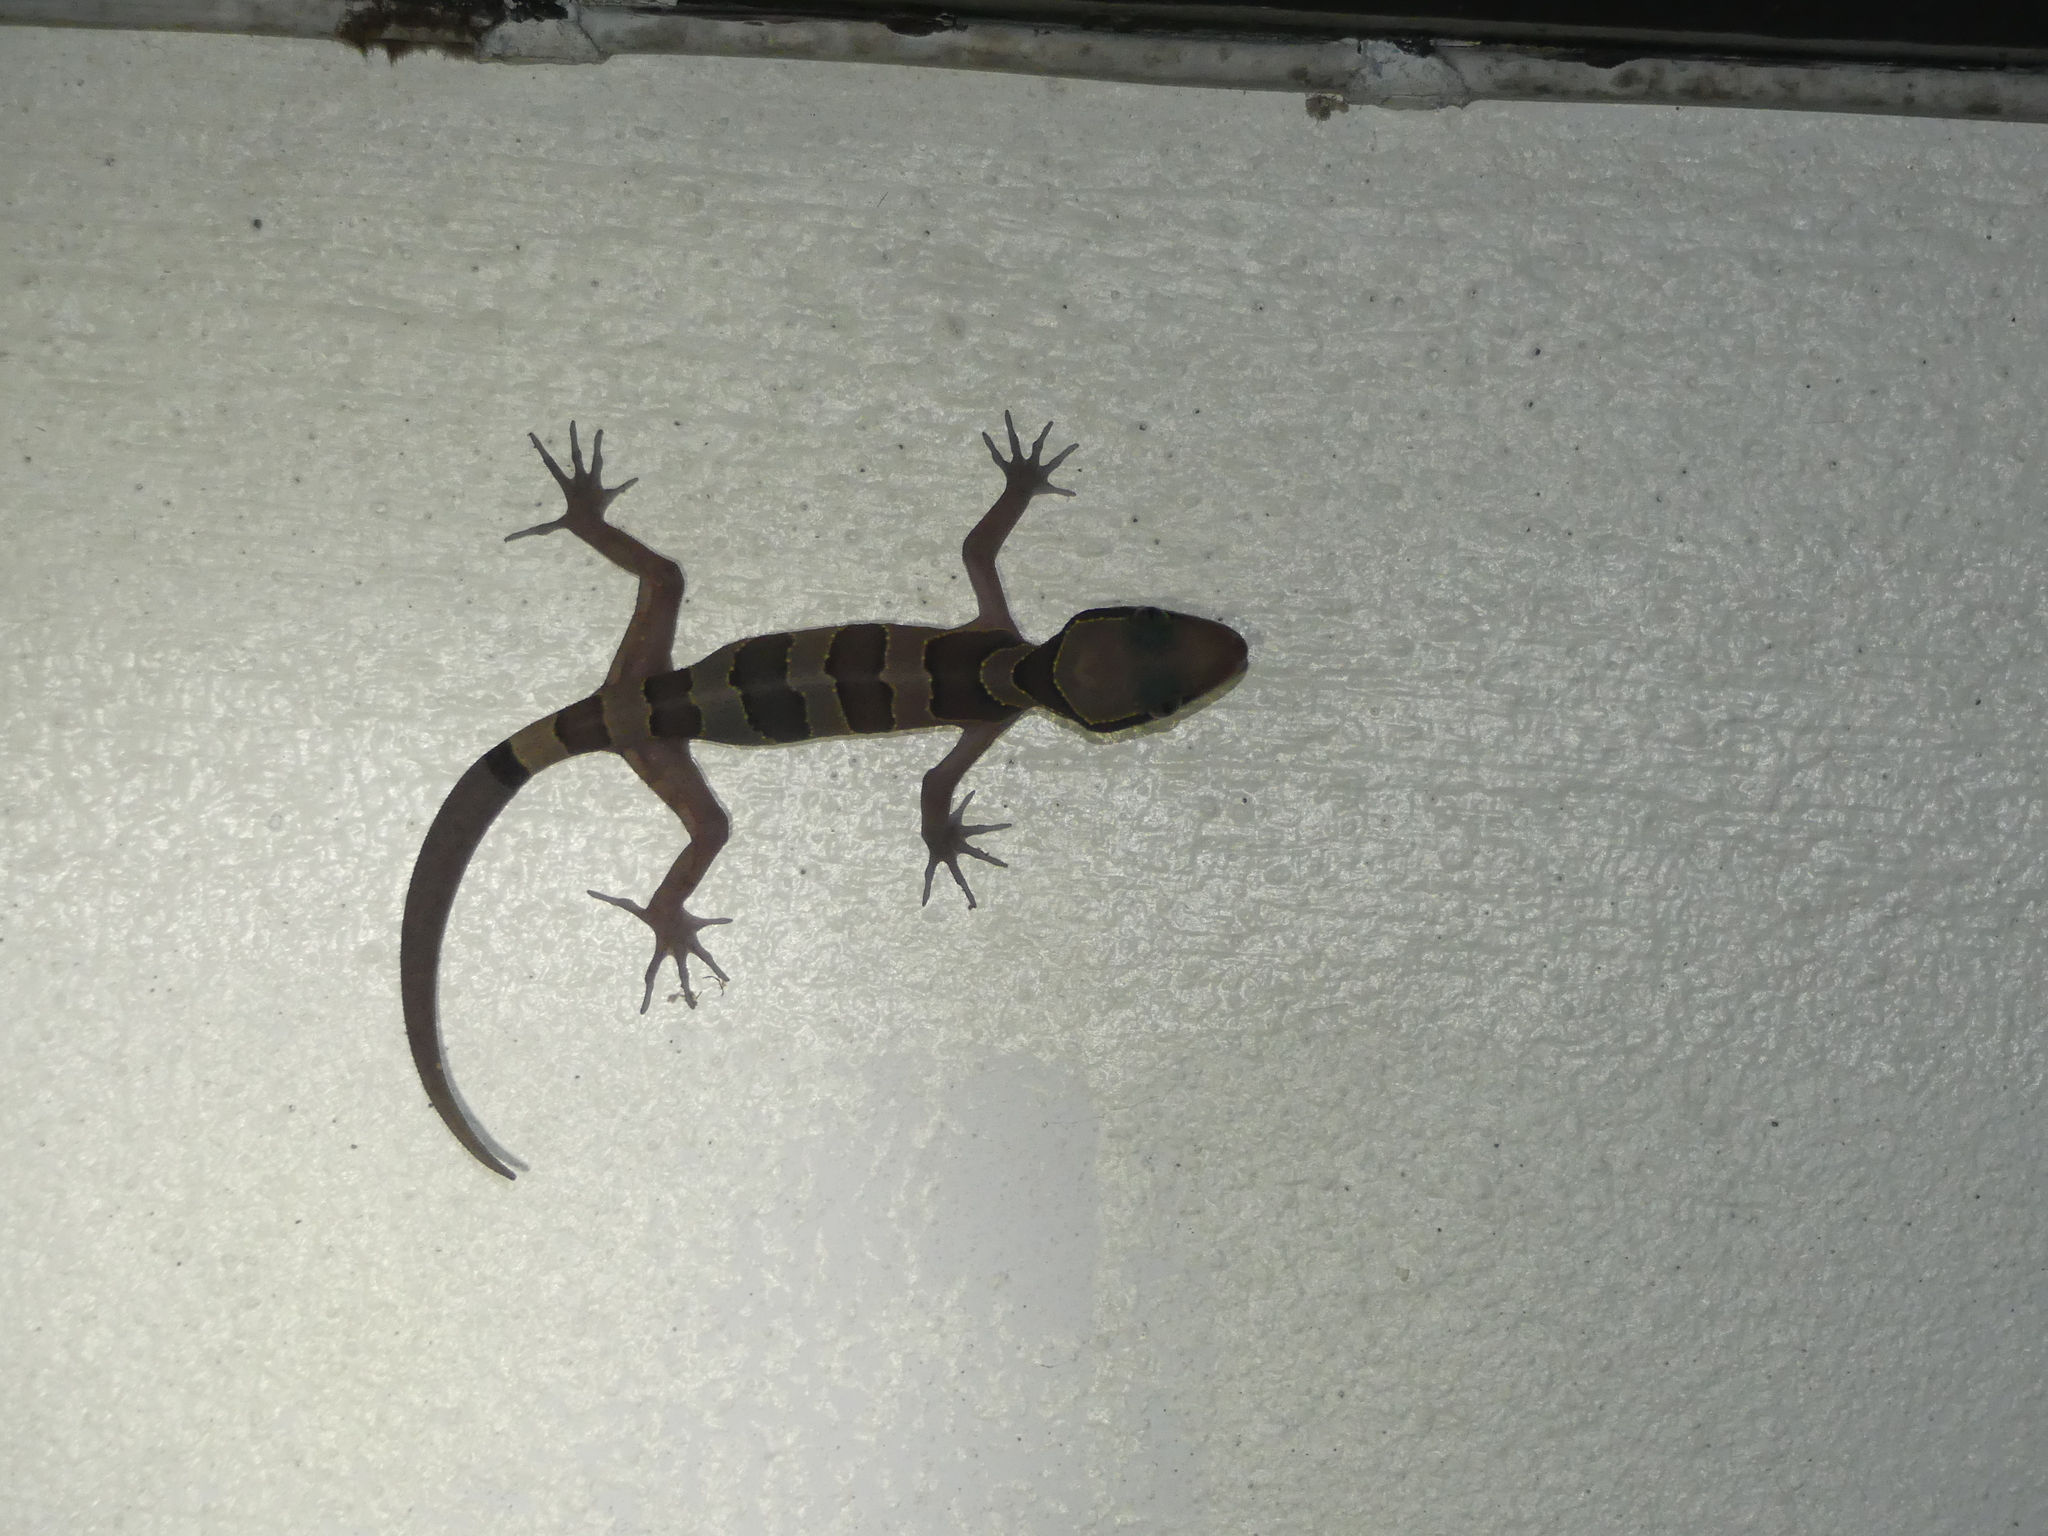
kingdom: Animalia
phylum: Chordata
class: Squamata
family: Gekkonidae
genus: Cyrtodactylus
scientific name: Cyrtodactylus intermedius
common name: Cardamon forest gecko
